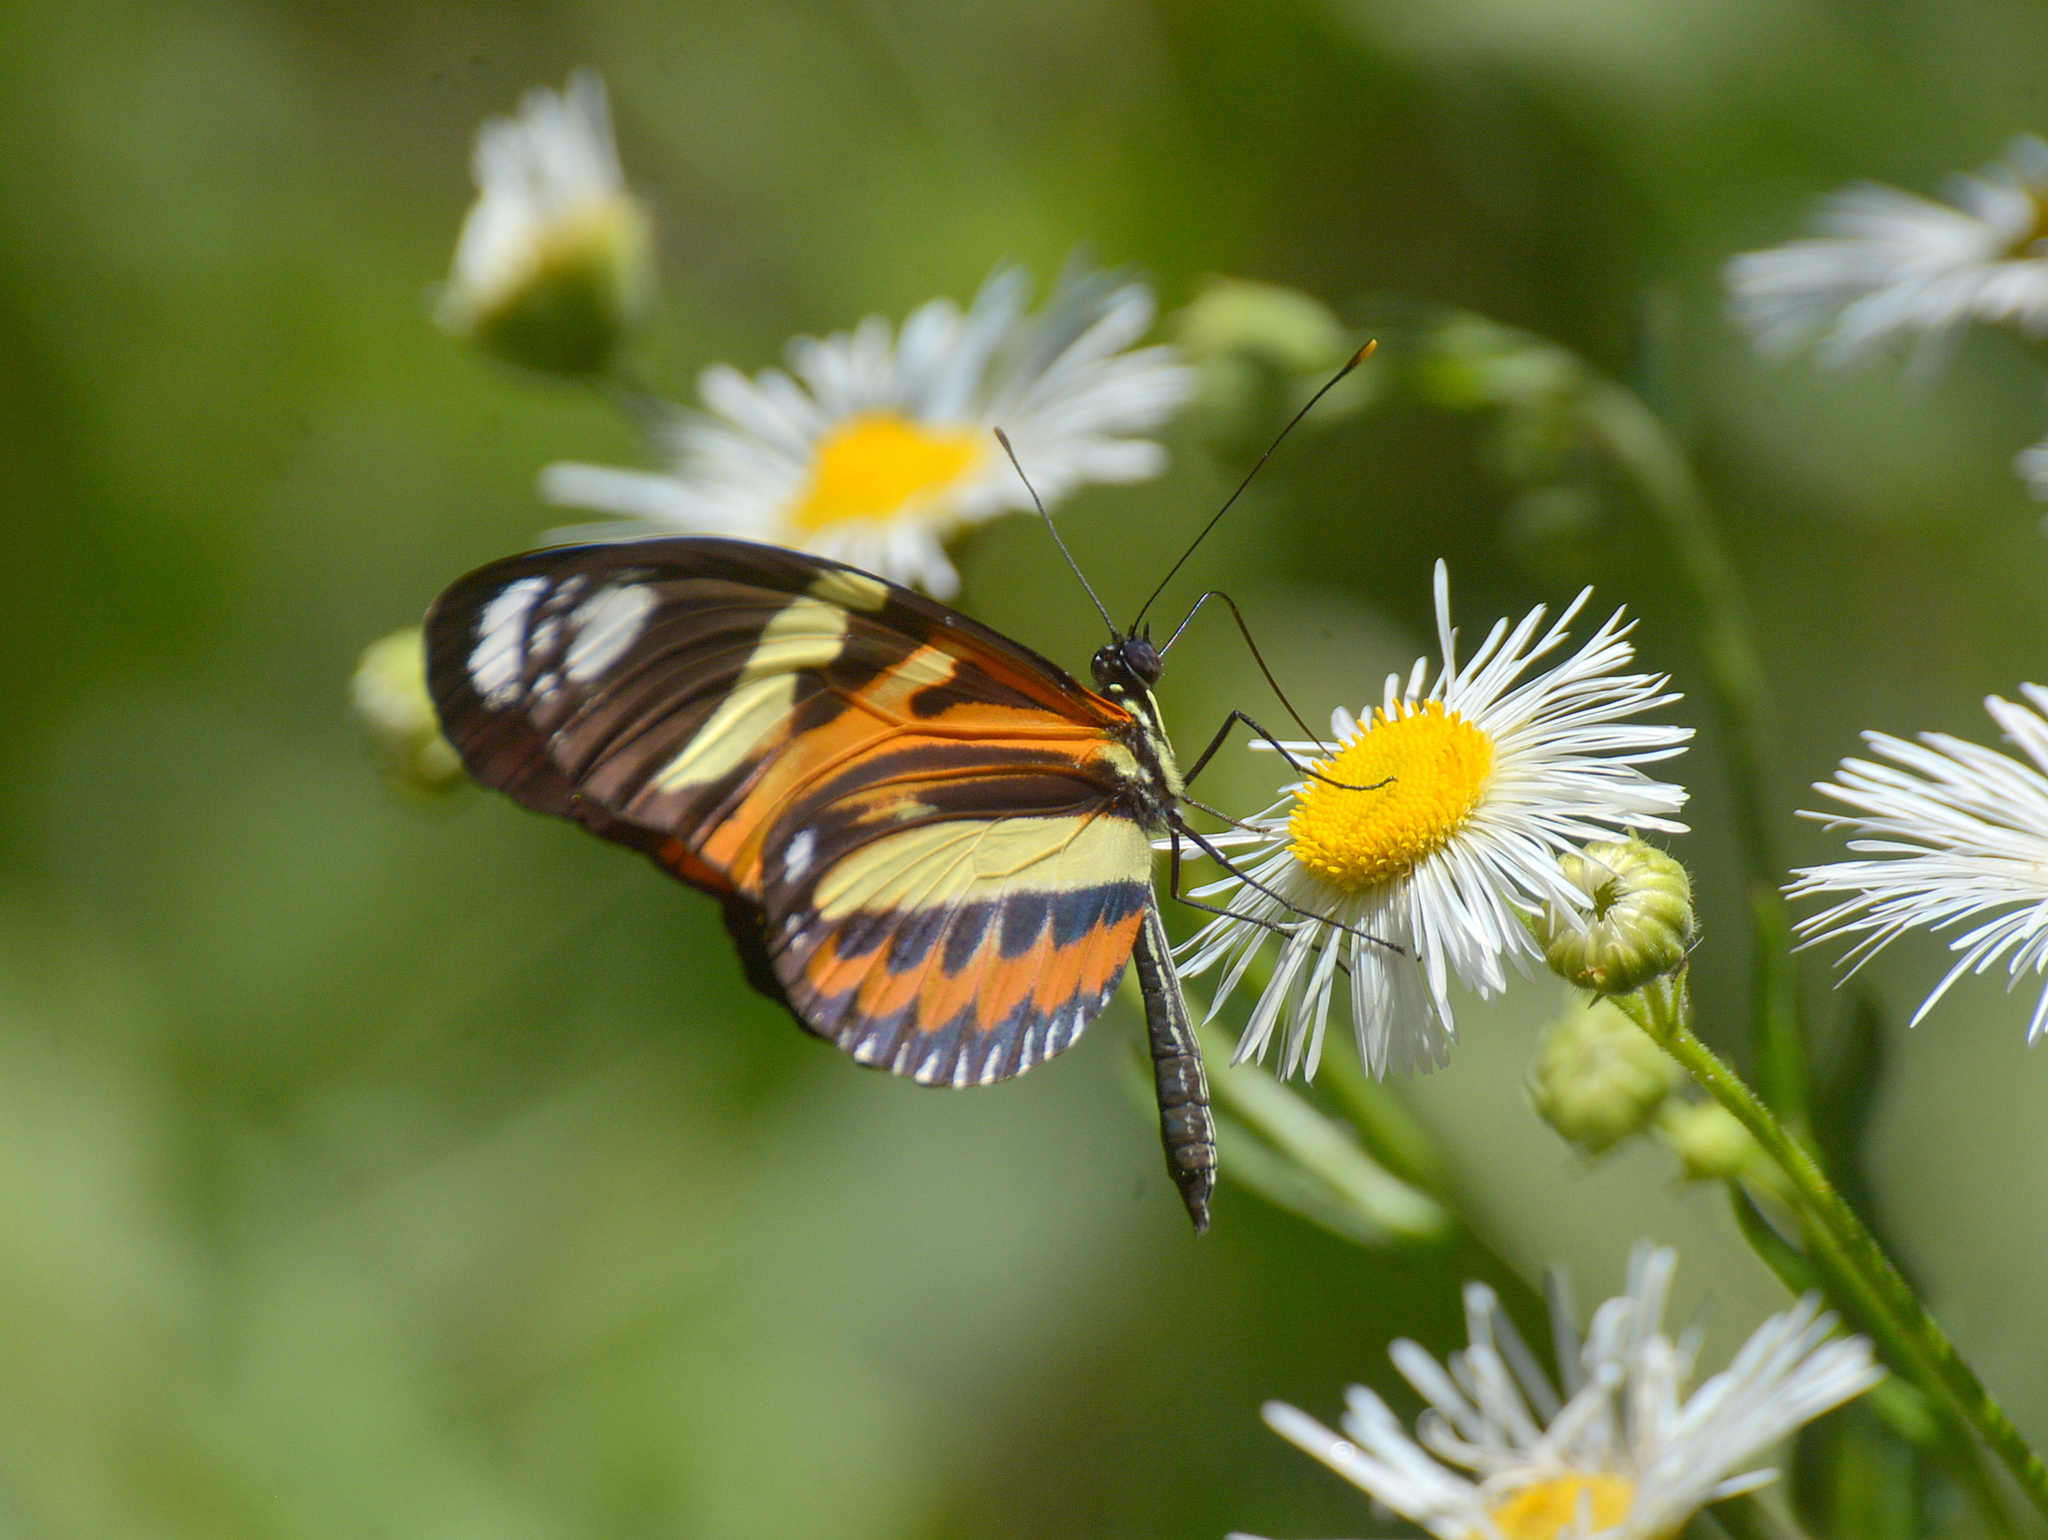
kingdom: Animalia
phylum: Arthropoda
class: Insecta
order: Lepidoptera
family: Nymphalidae
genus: Heliconius
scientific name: Heliconius ethilla
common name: Ethilia longwing
